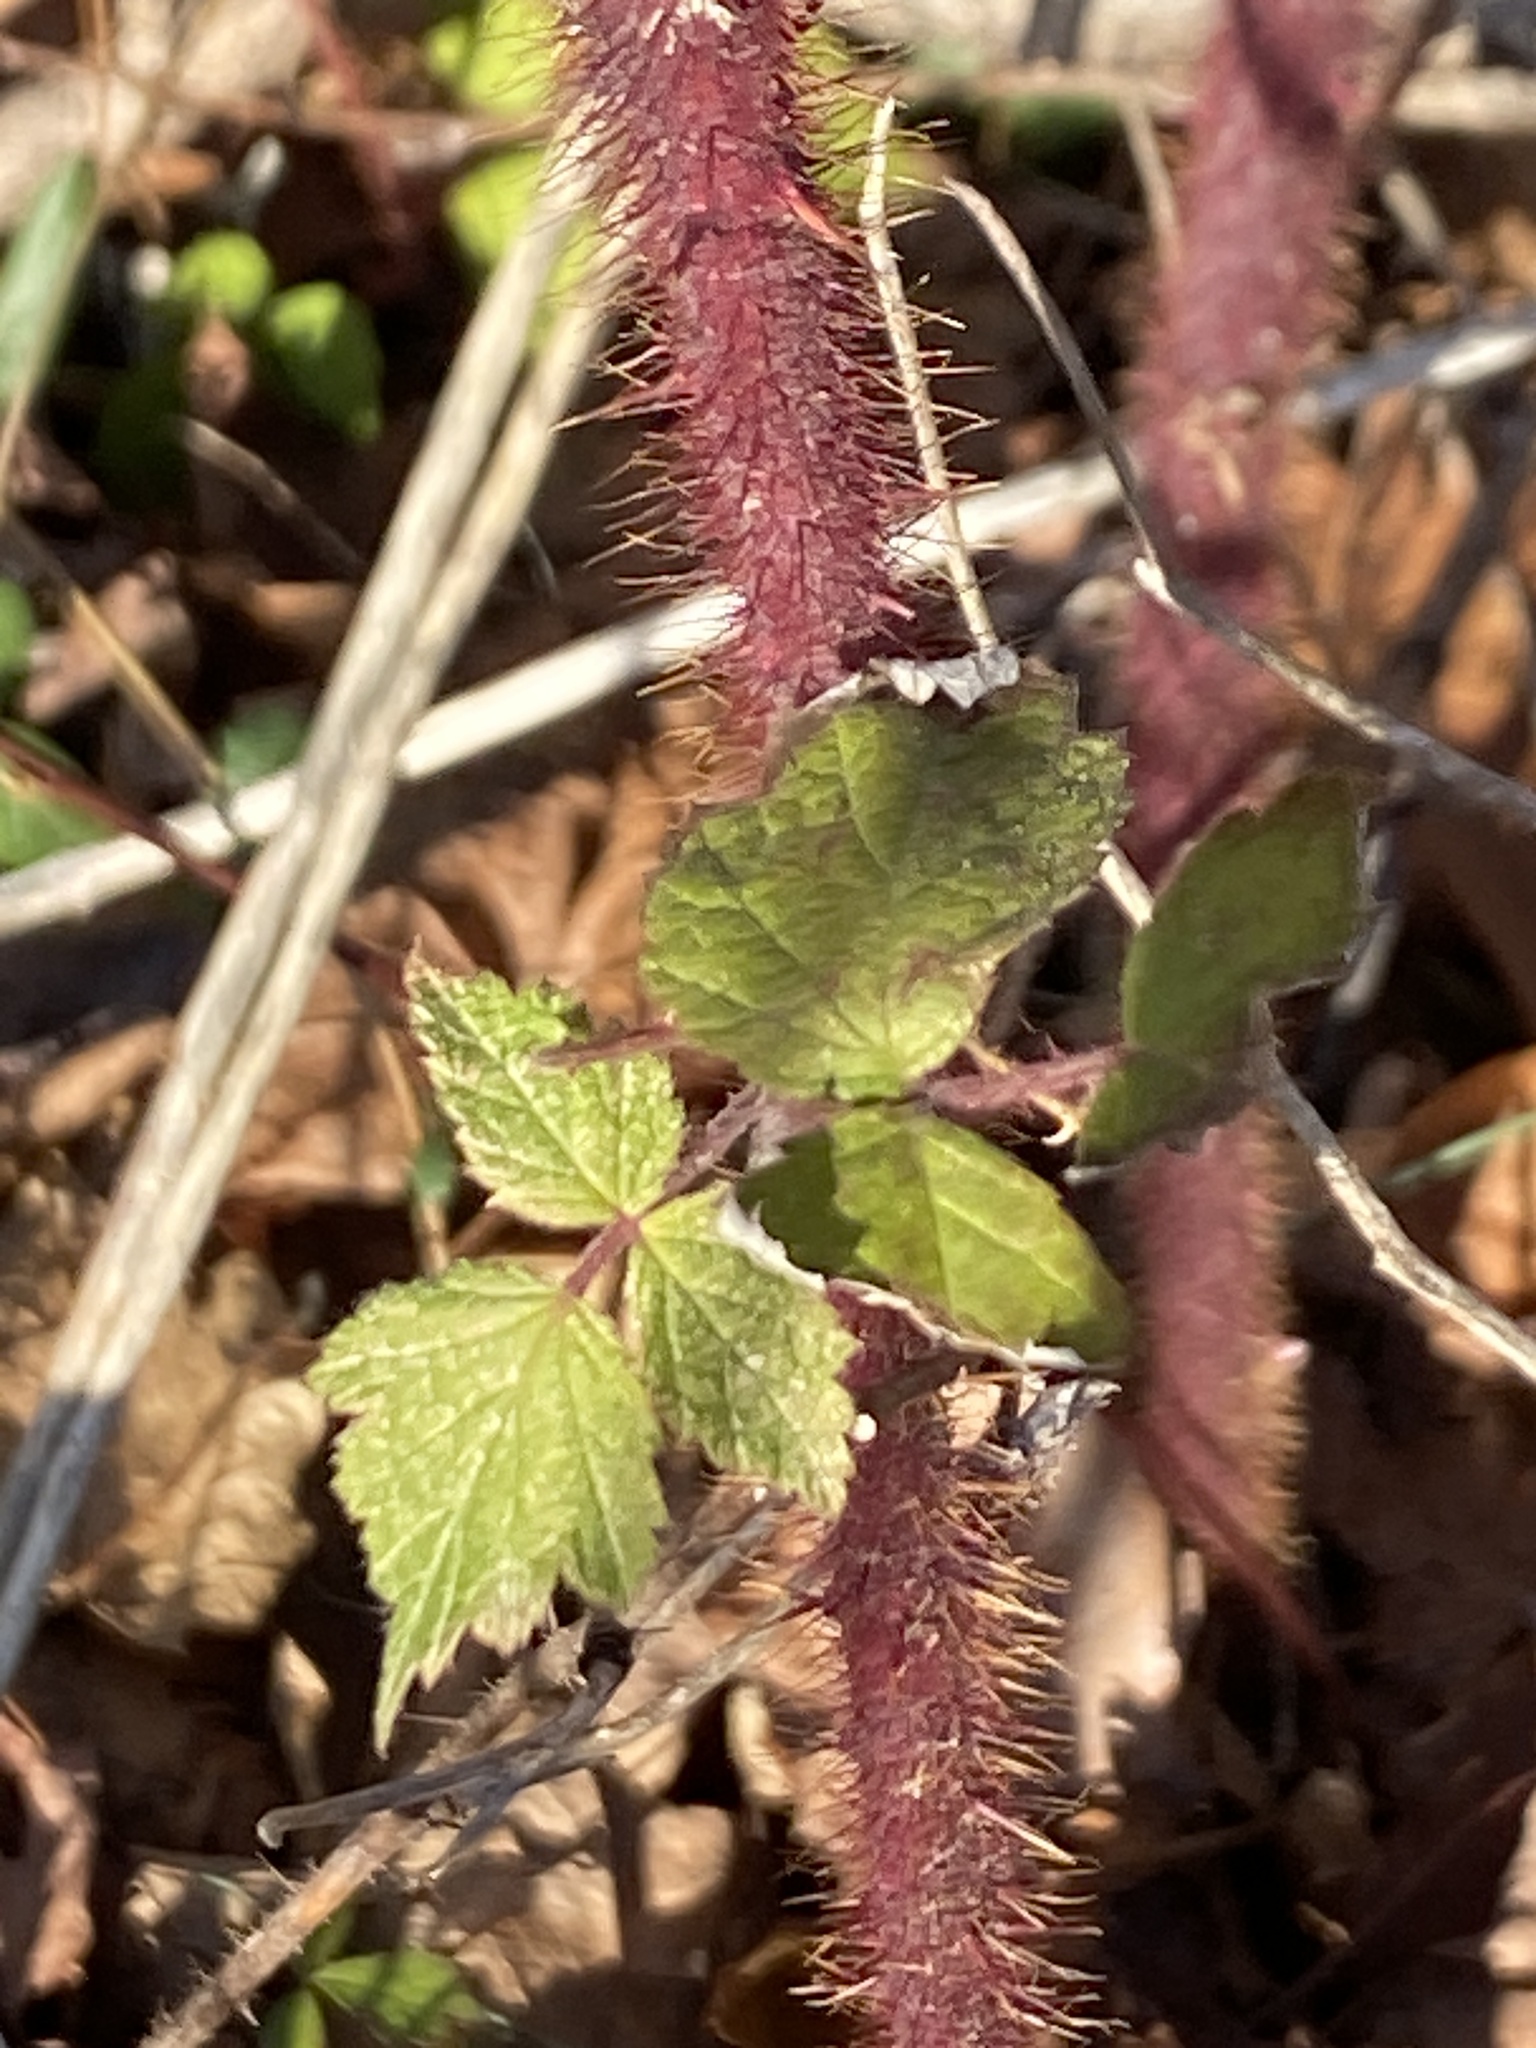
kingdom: Plantae
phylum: Tracheophyta
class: Magnoliopsida
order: Rosales
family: Rosaceae
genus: Rubus
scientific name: Rubus phoenicolasius
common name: Japanese wineberry
